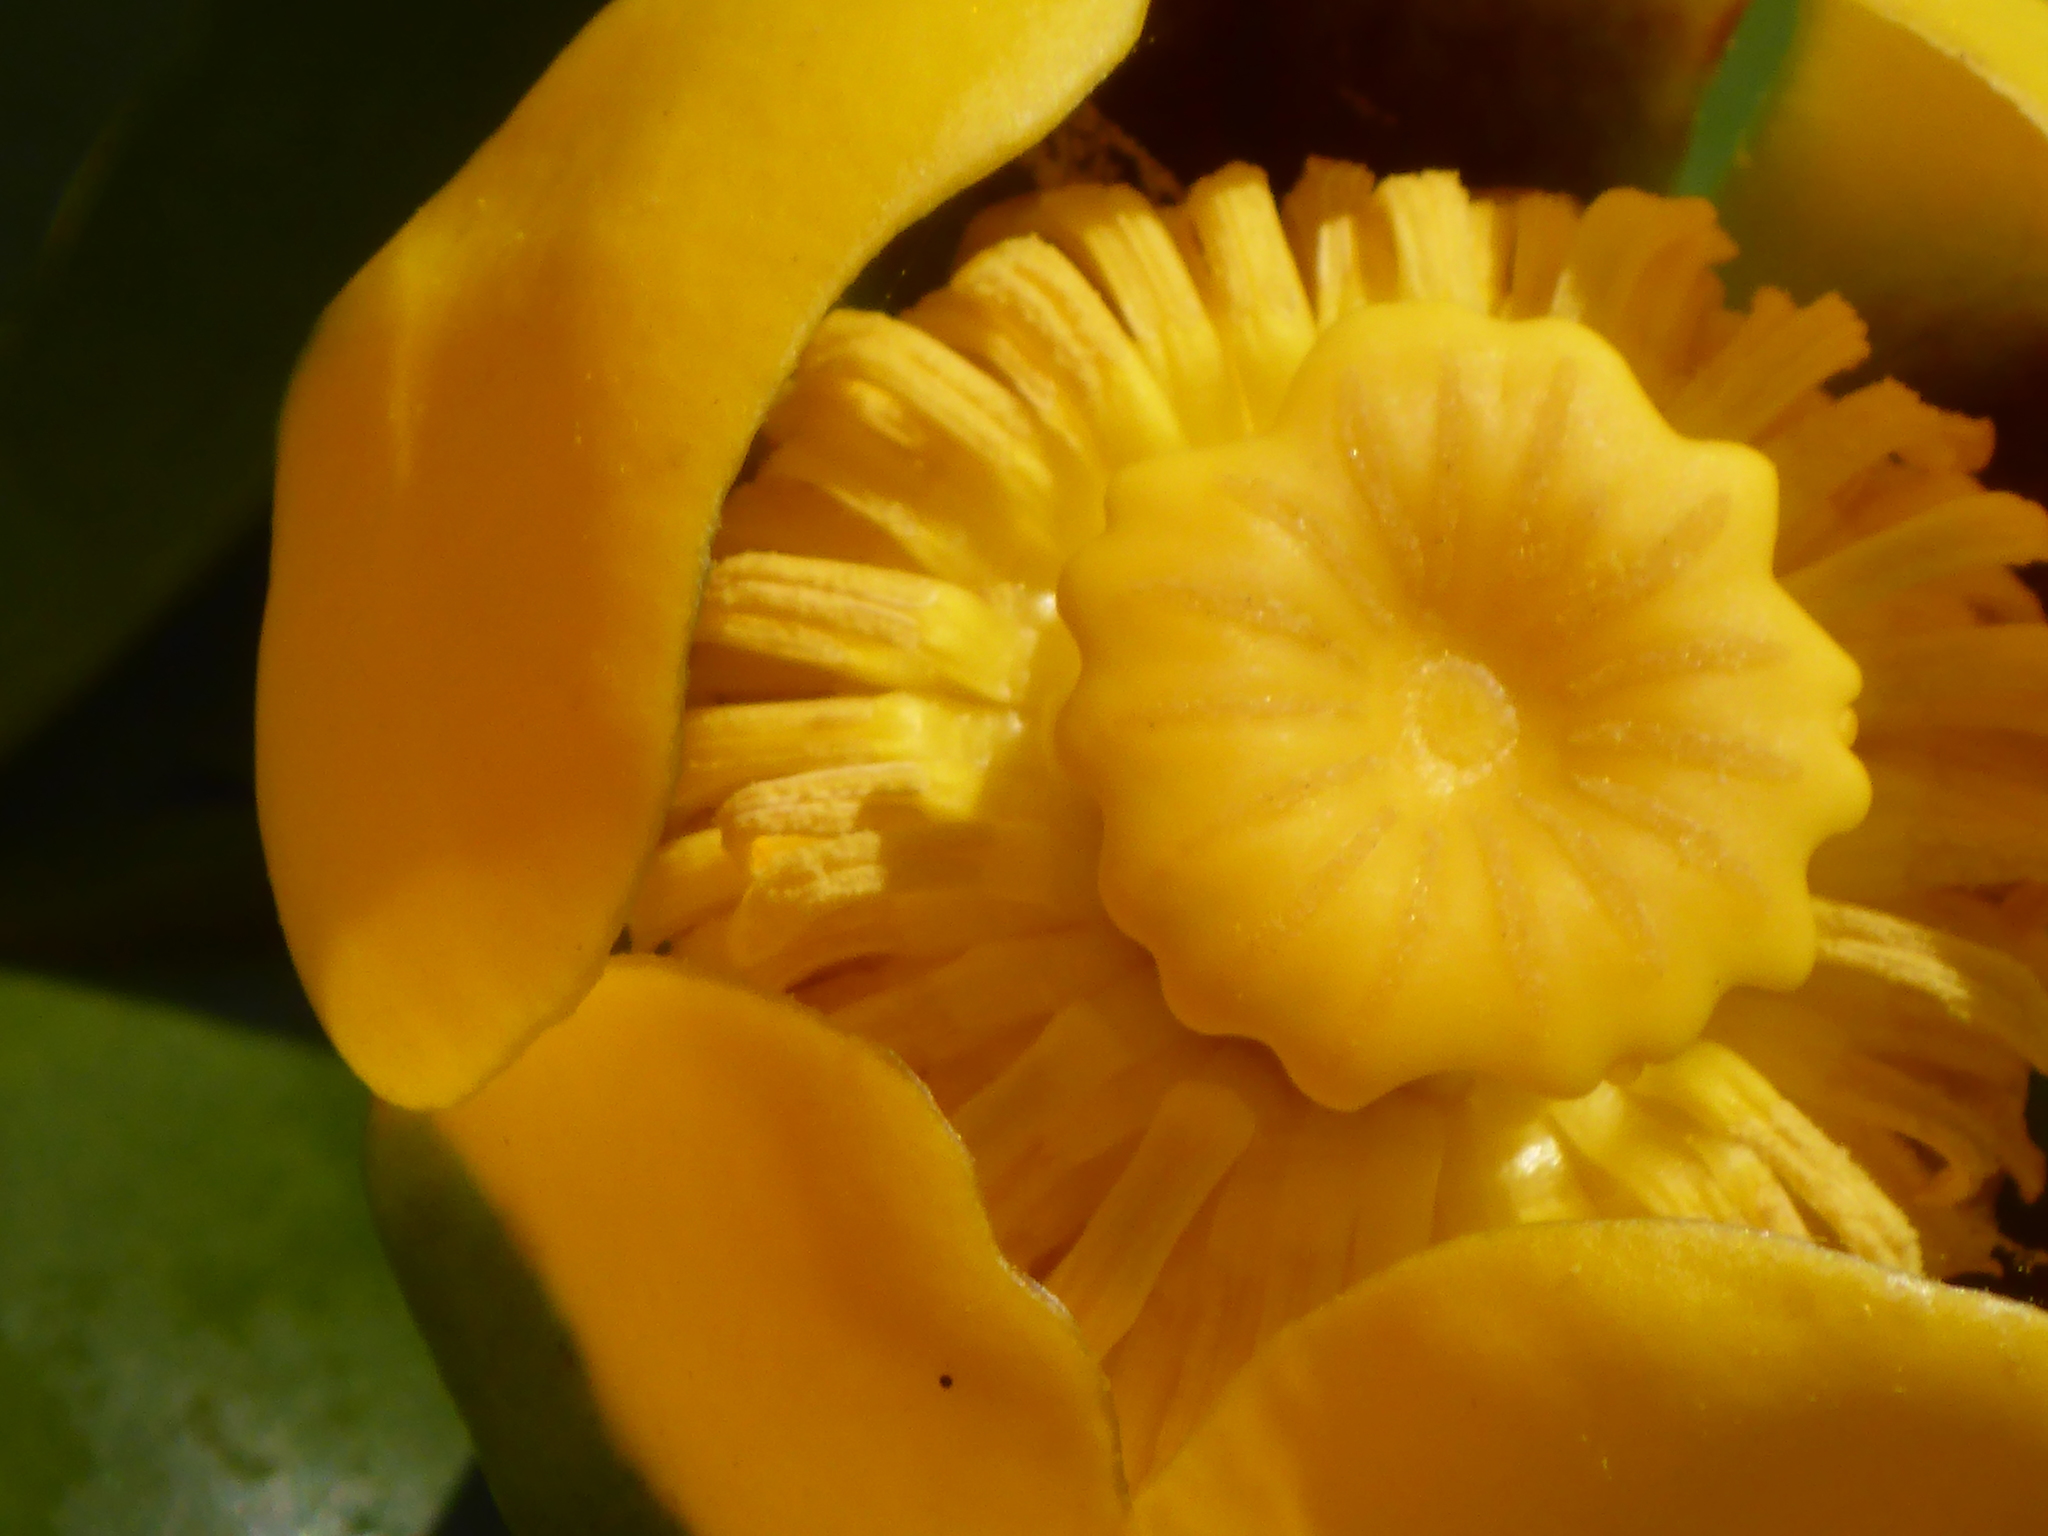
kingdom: Plantae
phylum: Tracheophyta
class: Magnoliopsida
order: Nymphaeales
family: Nymphaeaceae
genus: Nuphar
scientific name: Nuphar variegata
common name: Beaver-root
